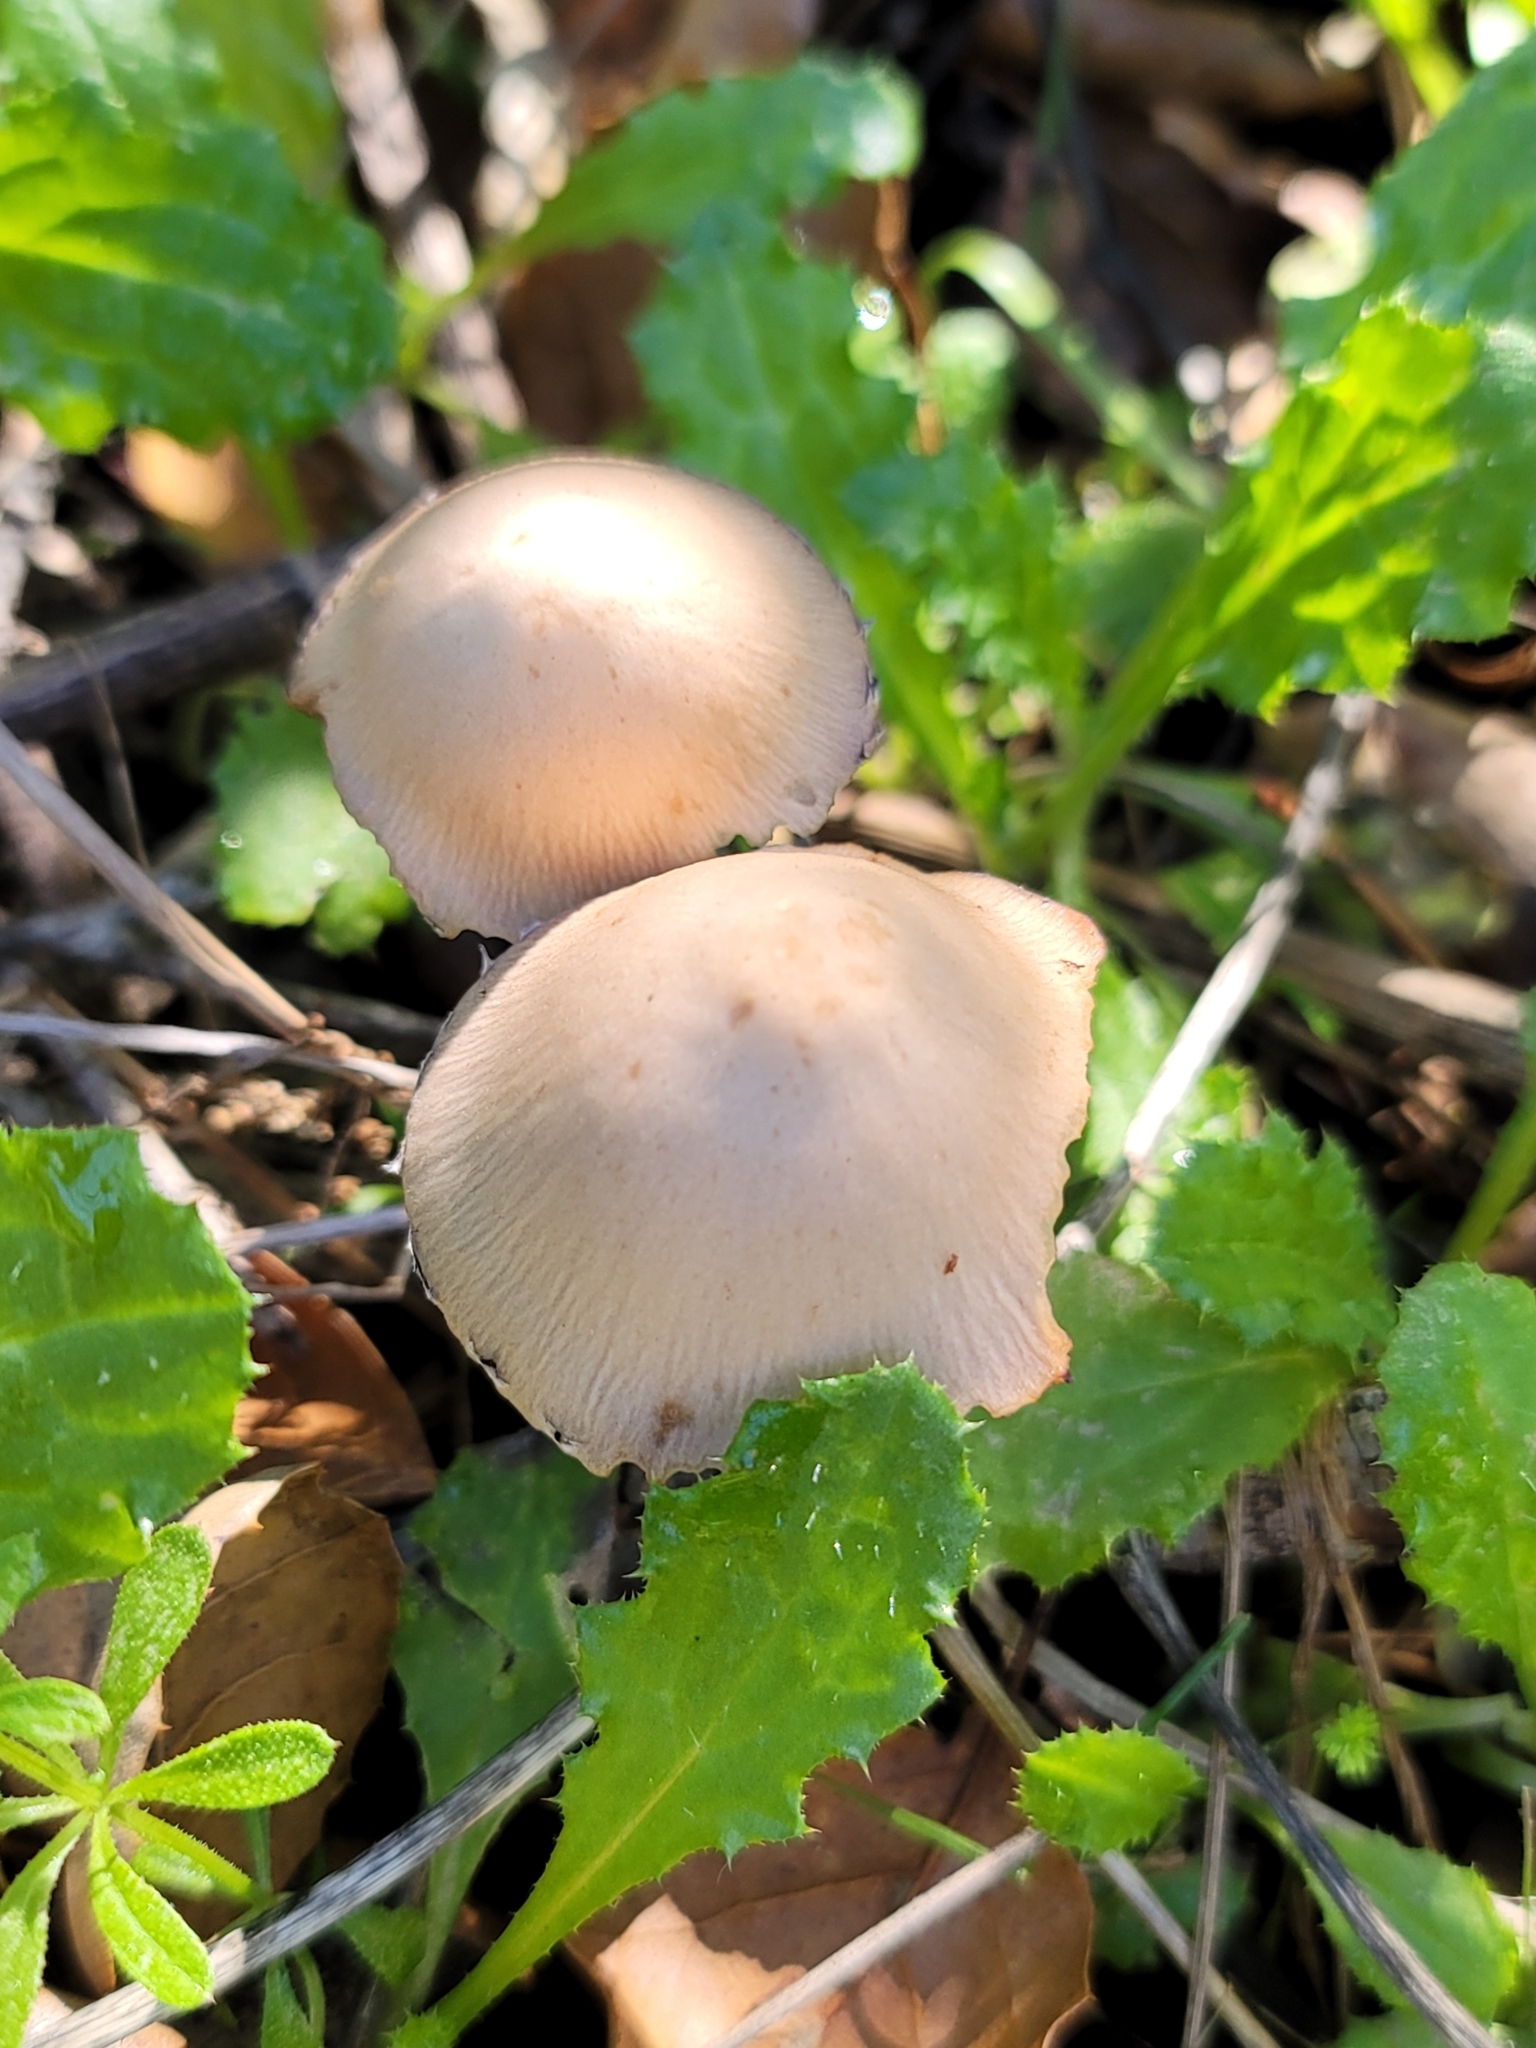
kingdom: Fungi
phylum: Basidiomycota
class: Agaricomycetes
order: Agaricales
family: Psathyrellaceae
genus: Candolleomyces
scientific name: Candolleomyces candolleanus
